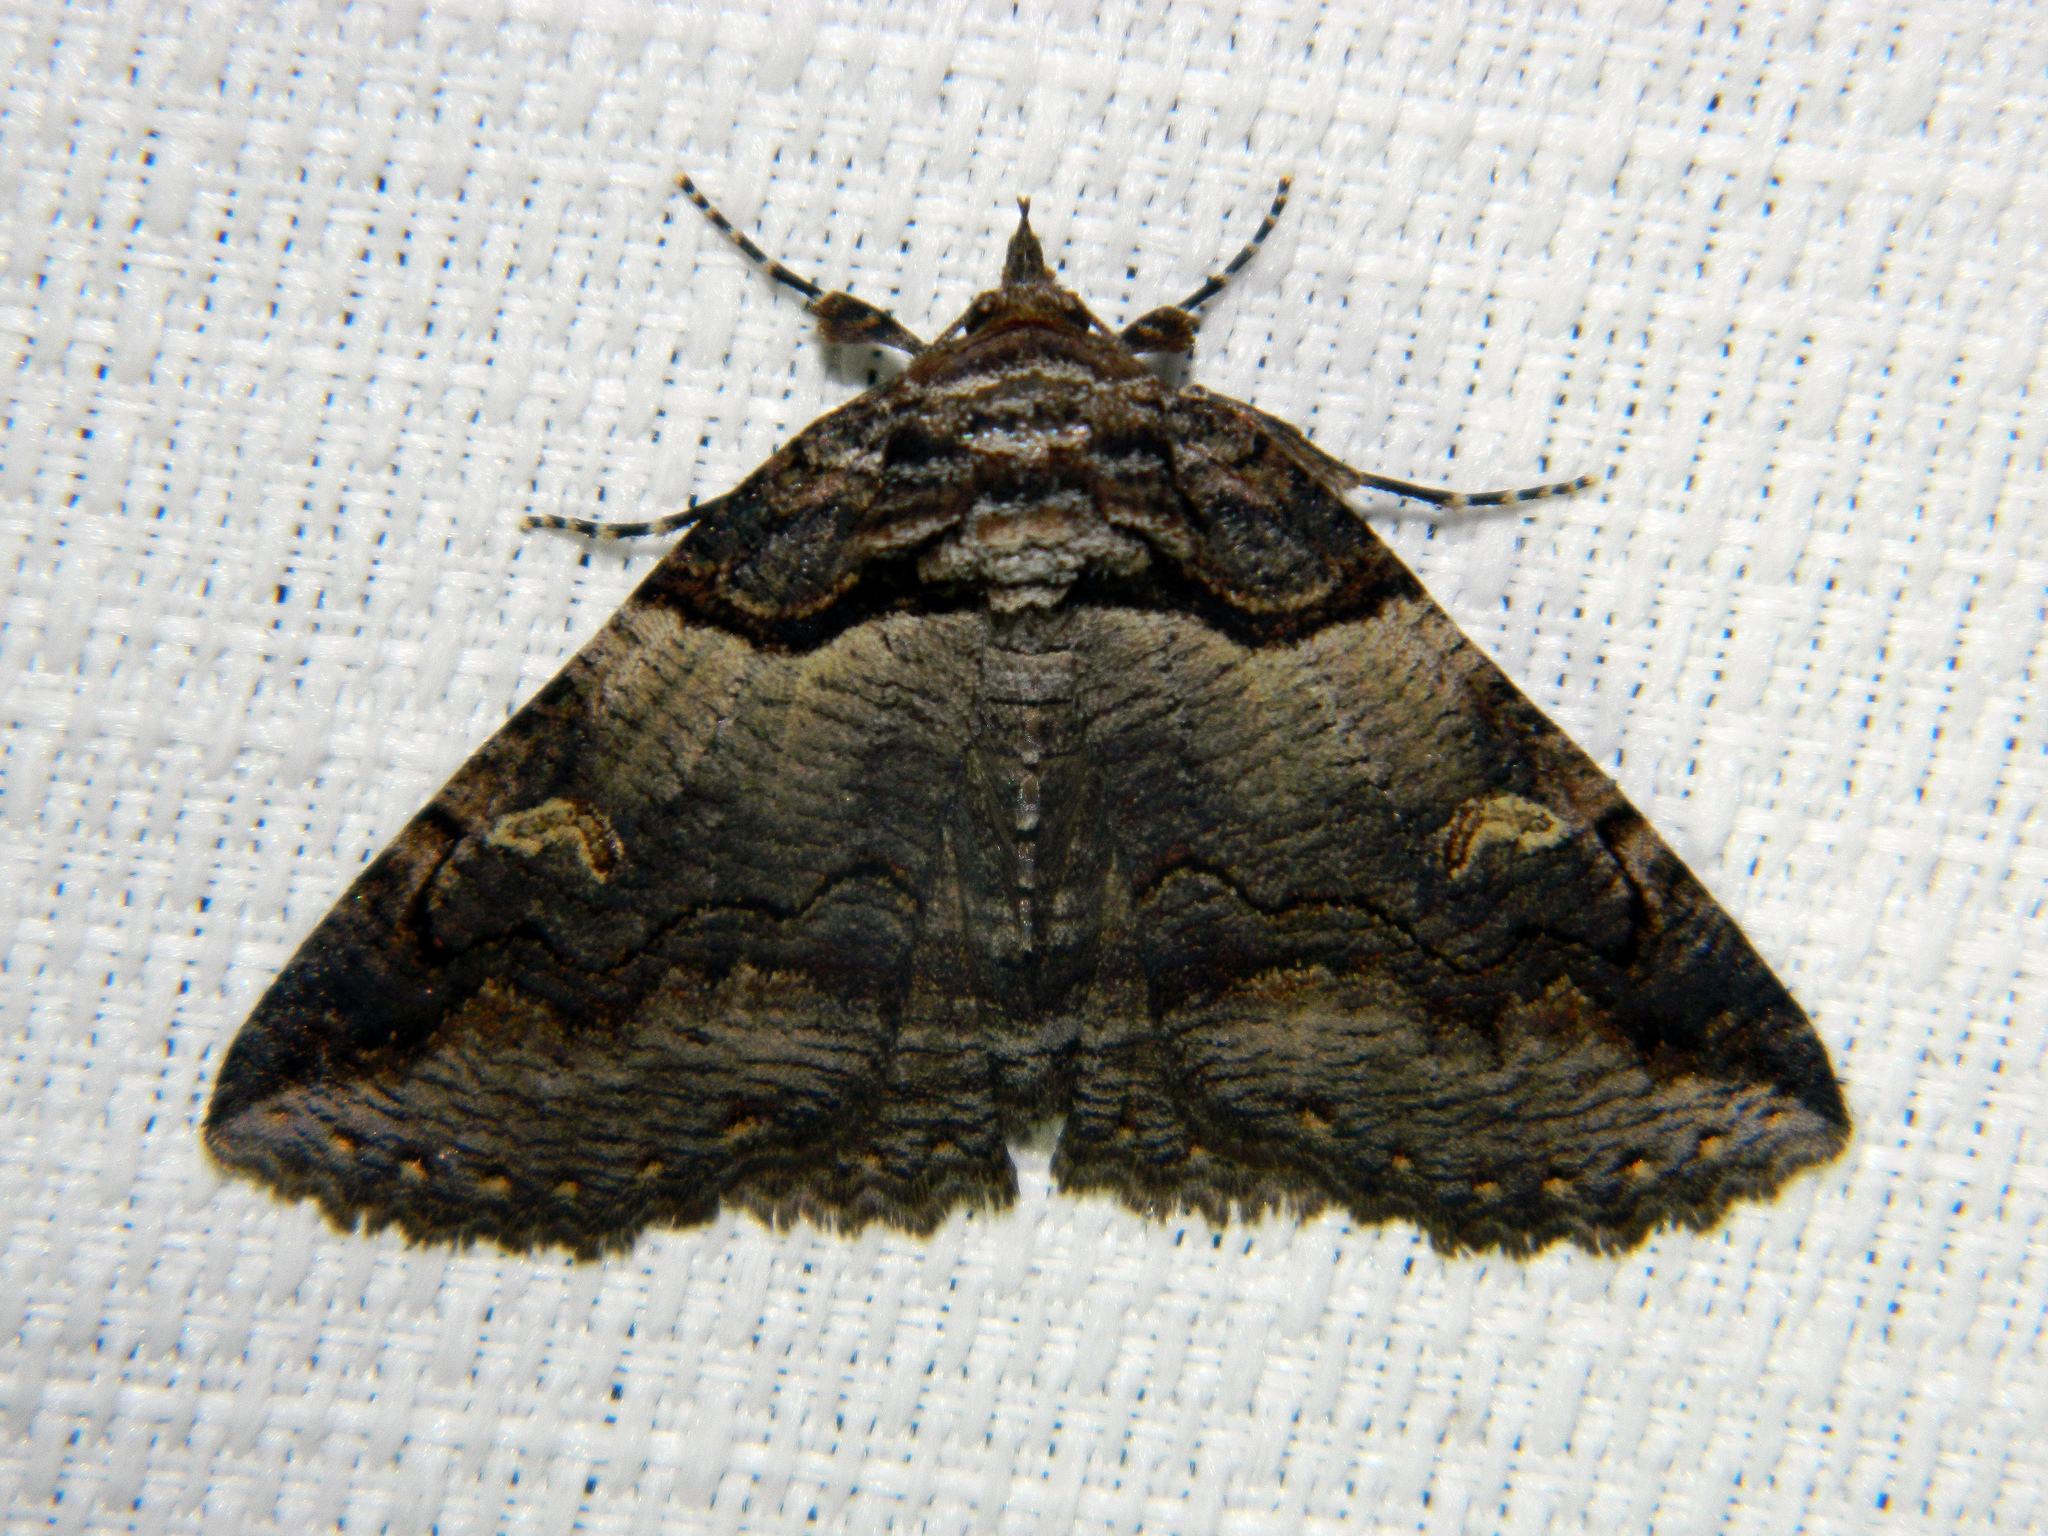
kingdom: Animalia
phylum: Arthropoda
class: Insecta
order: Lepidoptera
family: Erebidae
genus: Zale
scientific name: Zale intenta
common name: Intent zale moth
